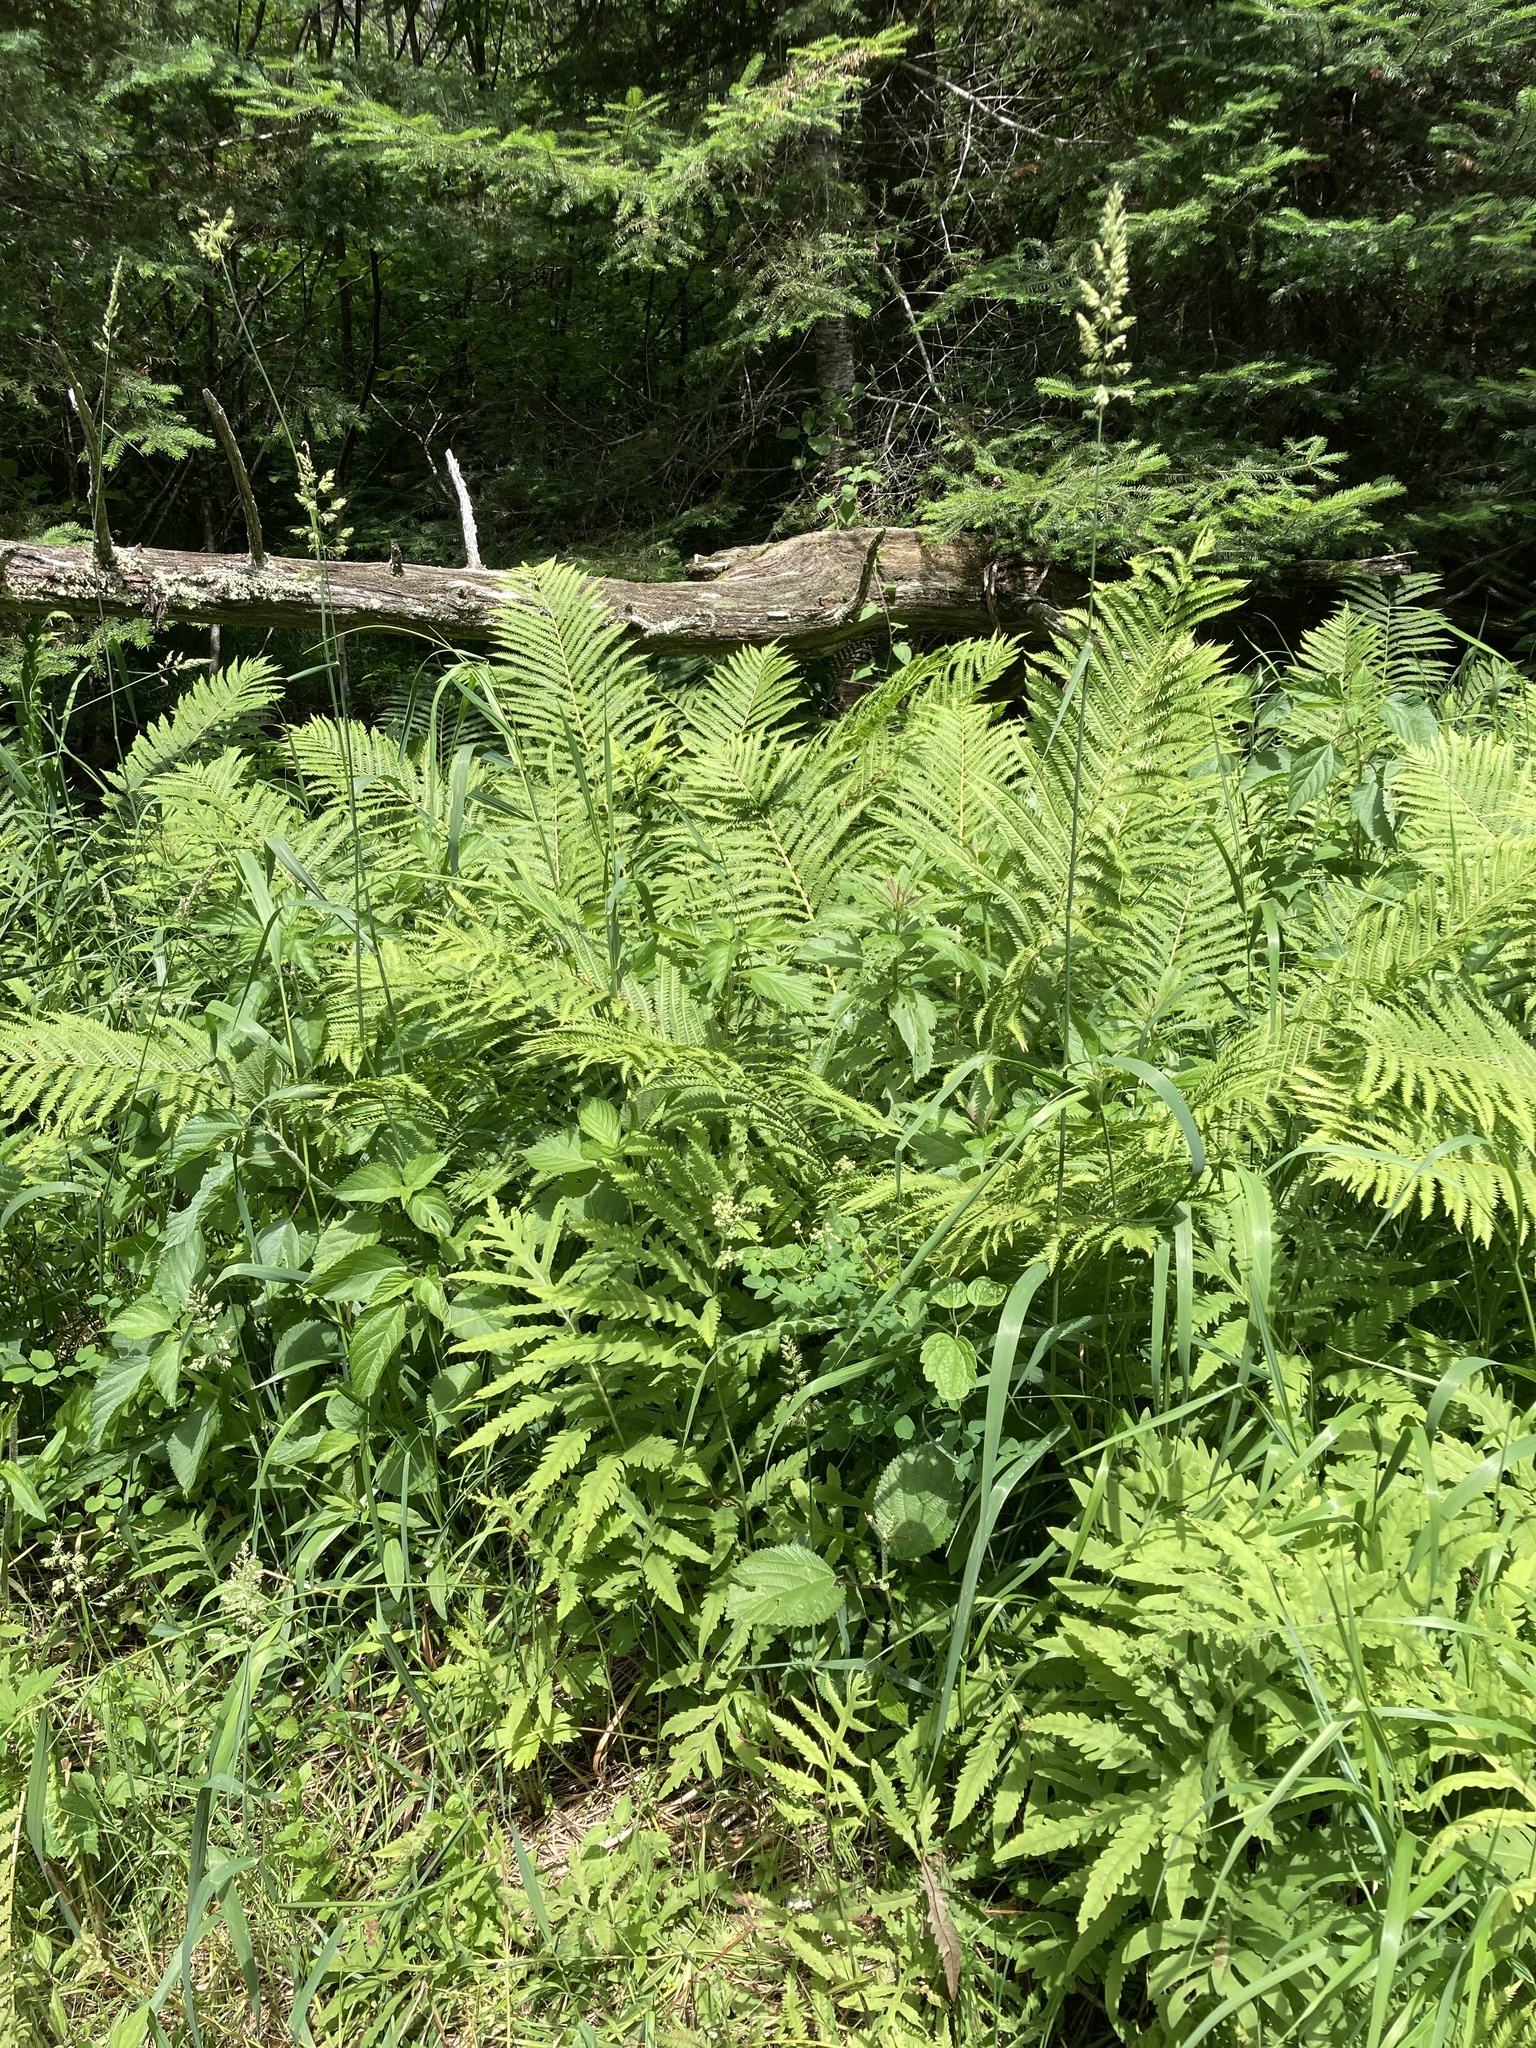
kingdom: Plantae
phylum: Tracheophyta
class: Liliopsida
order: Poales
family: Poaceae
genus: Phalaris
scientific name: Phalaris arundinacea
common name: Reed canary-grass
